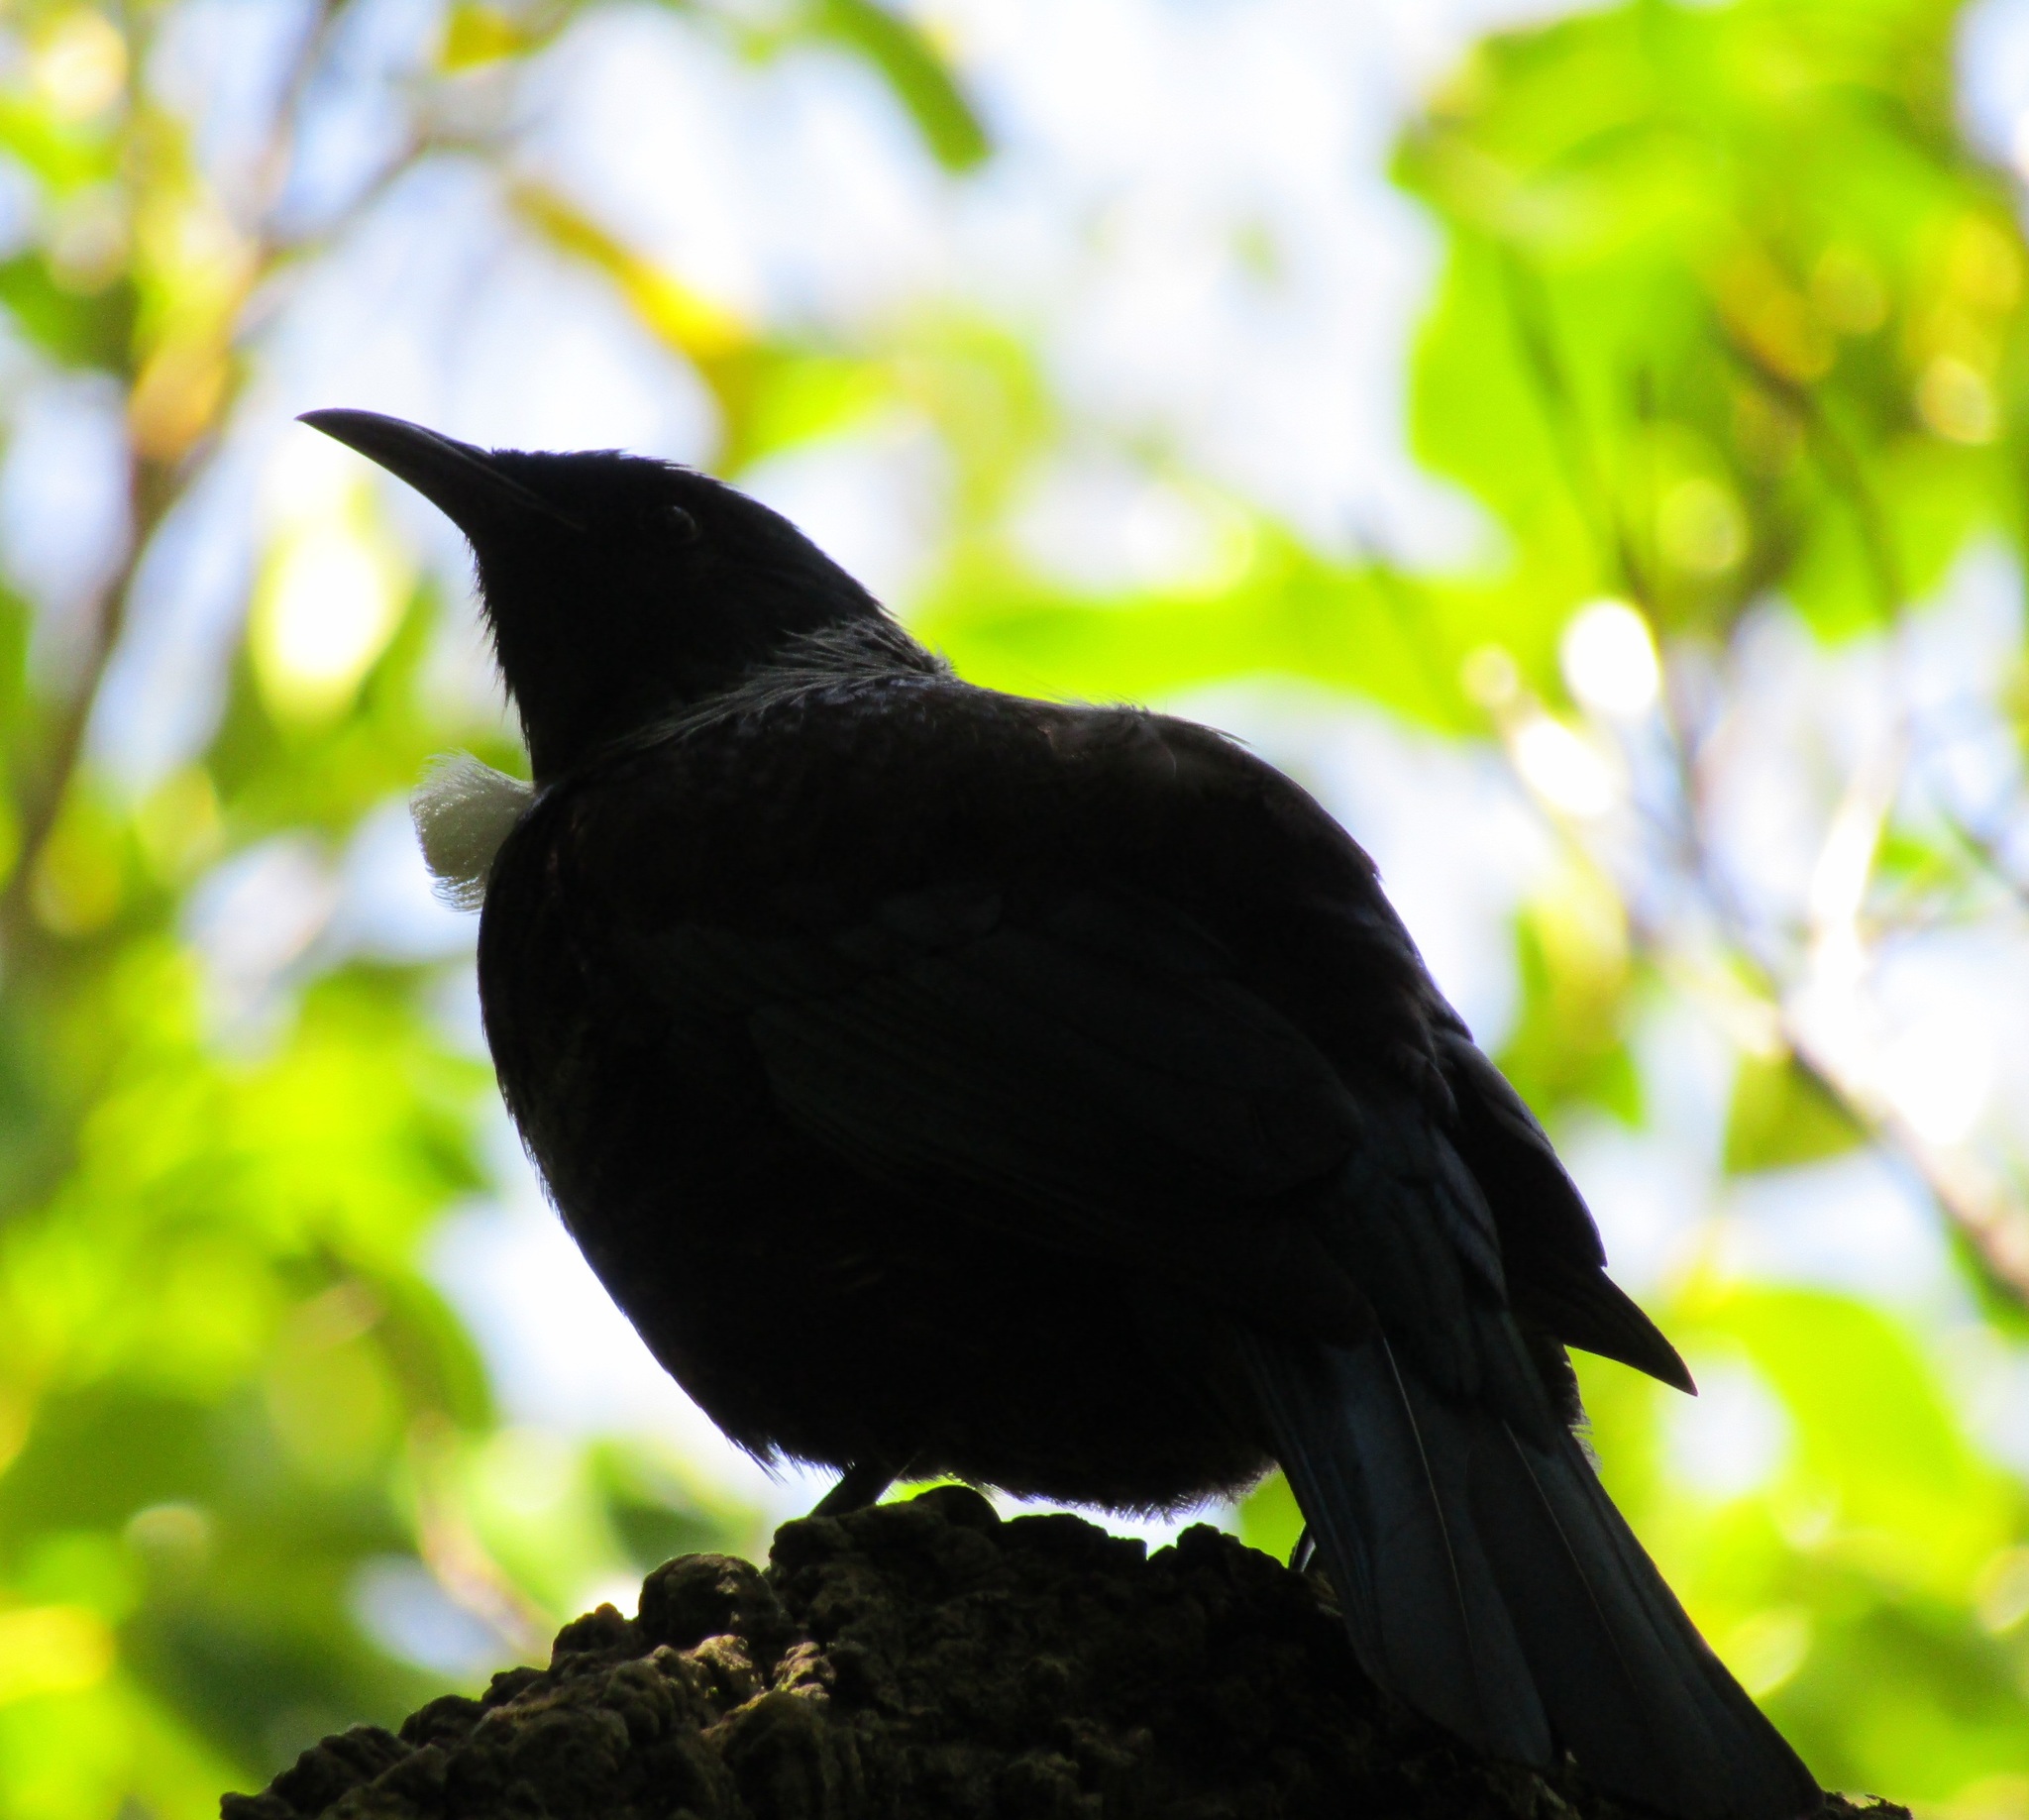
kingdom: Animalia
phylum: Chordata
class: Aves
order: Passeriformes
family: Meliphagidae
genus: Prosthemadera
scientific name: Prosthemadera novaeseelandiae
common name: Tui
